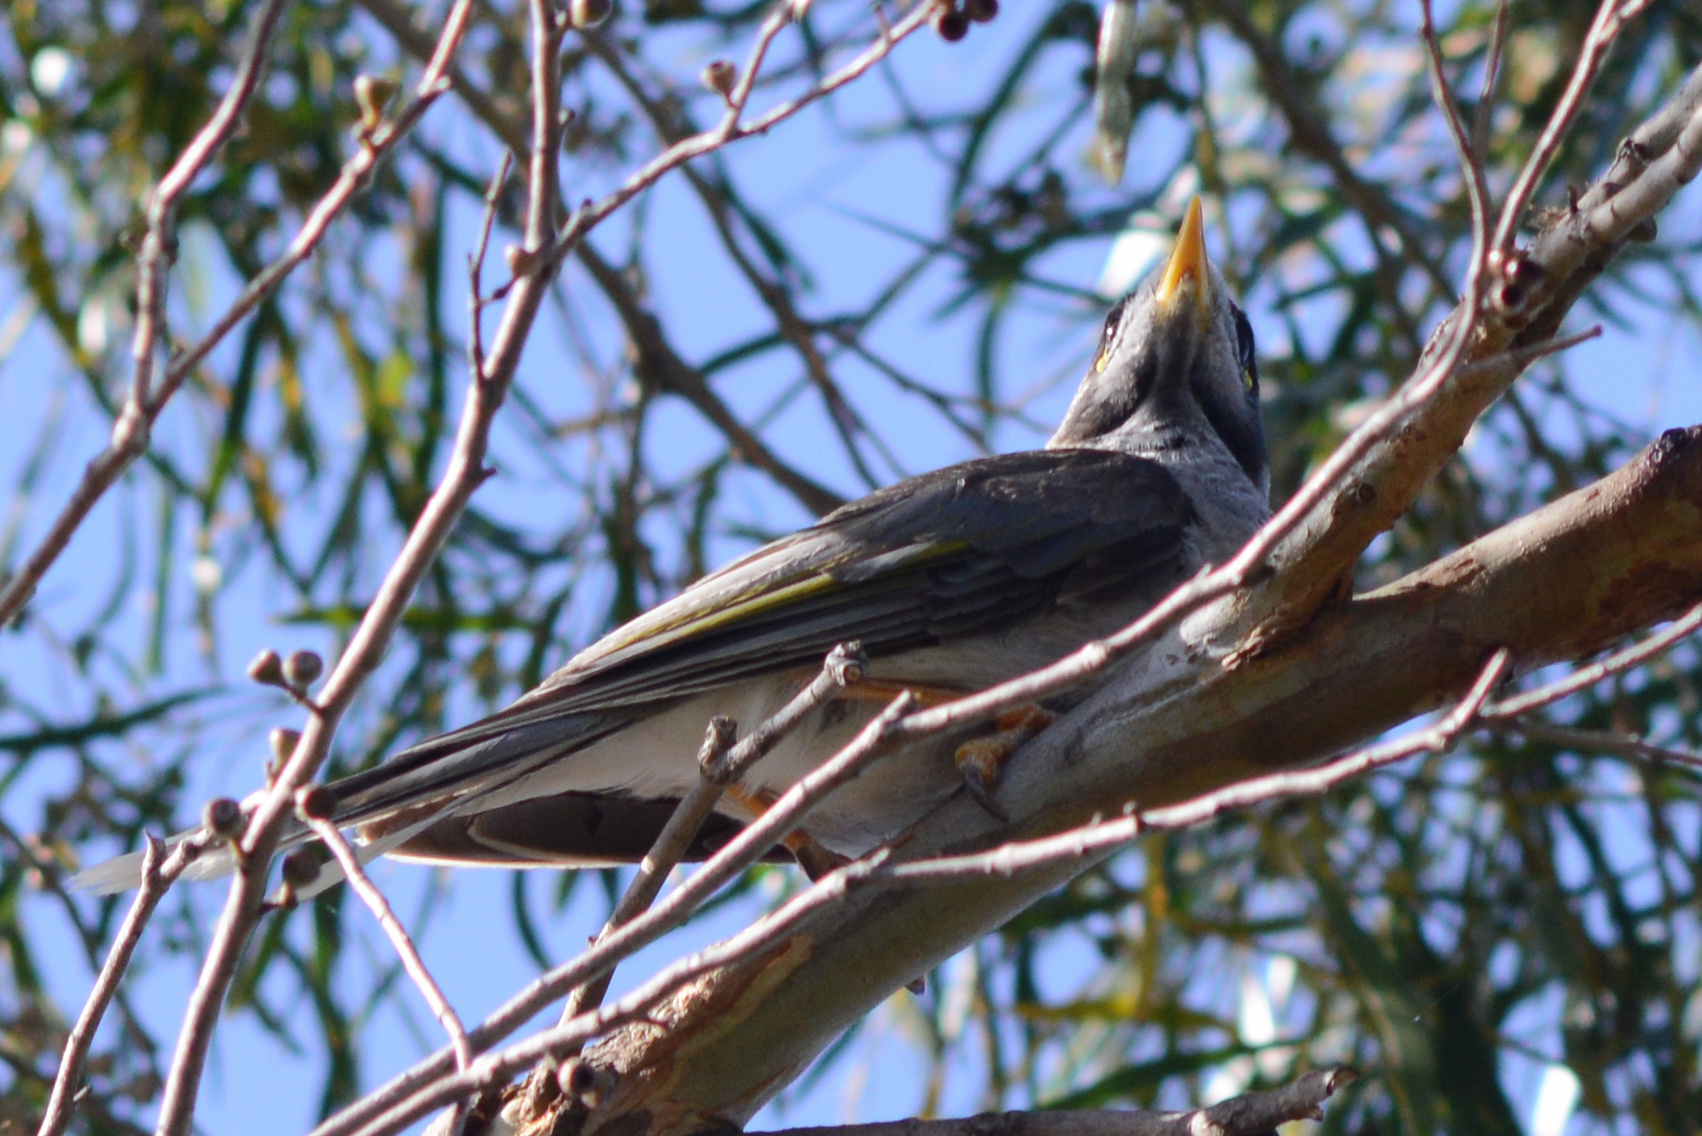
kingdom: Animalia
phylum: Chordata
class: Aves
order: Passeriformes
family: Meliphagidae
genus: Manorina
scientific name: Manorina melanocephala
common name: Noisy miner
